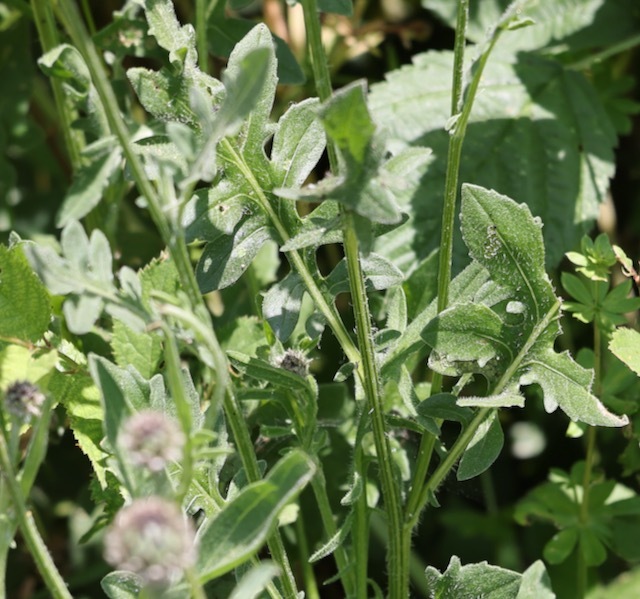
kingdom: Plantae
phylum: Tracheophyta
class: Magnoliopsida
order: Asterales
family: Asteraceae
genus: Centaurea
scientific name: Centaurea scabiosa
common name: Greater knapweed
